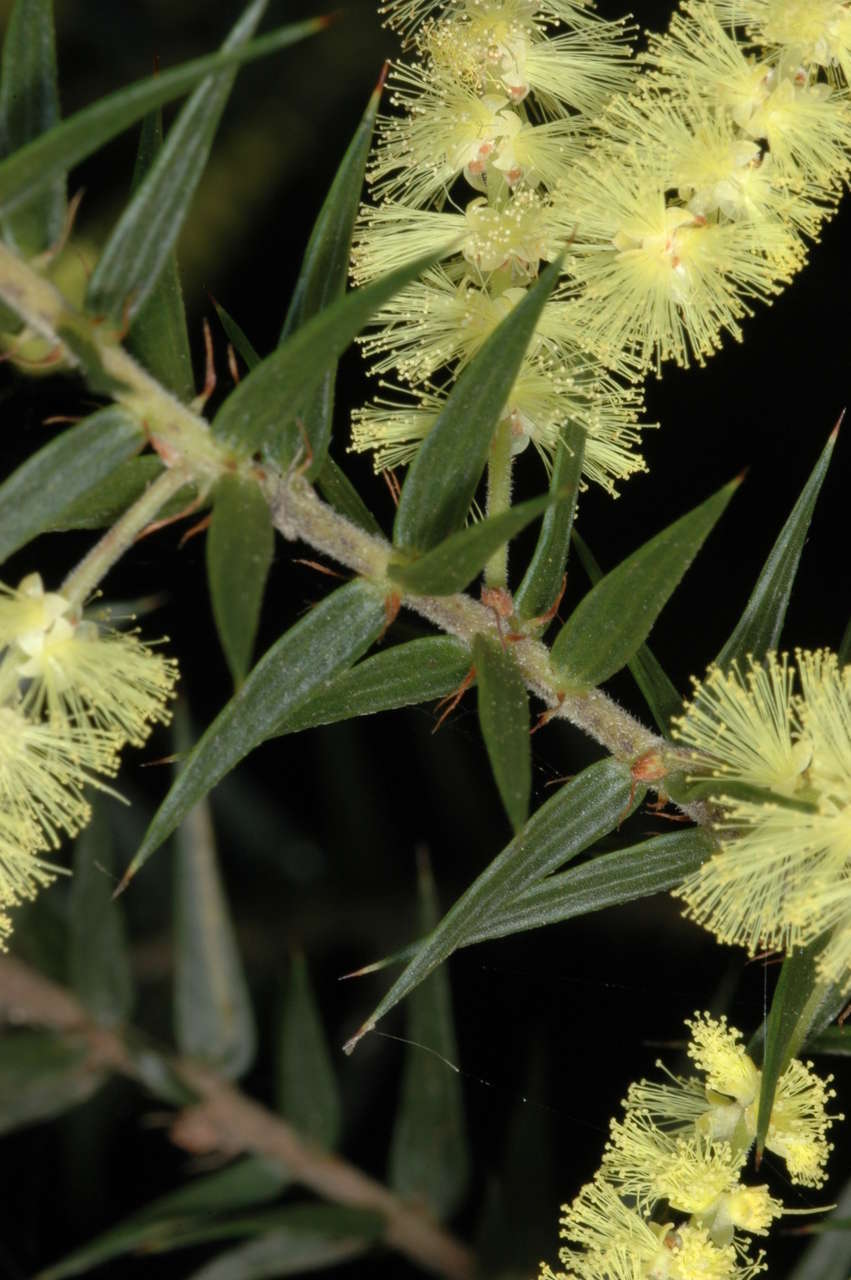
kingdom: Plantae
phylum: Tracheophyta
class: Magnoliopsida
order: Fabales
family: Fabaceae
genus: Acacia
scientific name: Acacia oxycedrus
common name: Spike wattle
